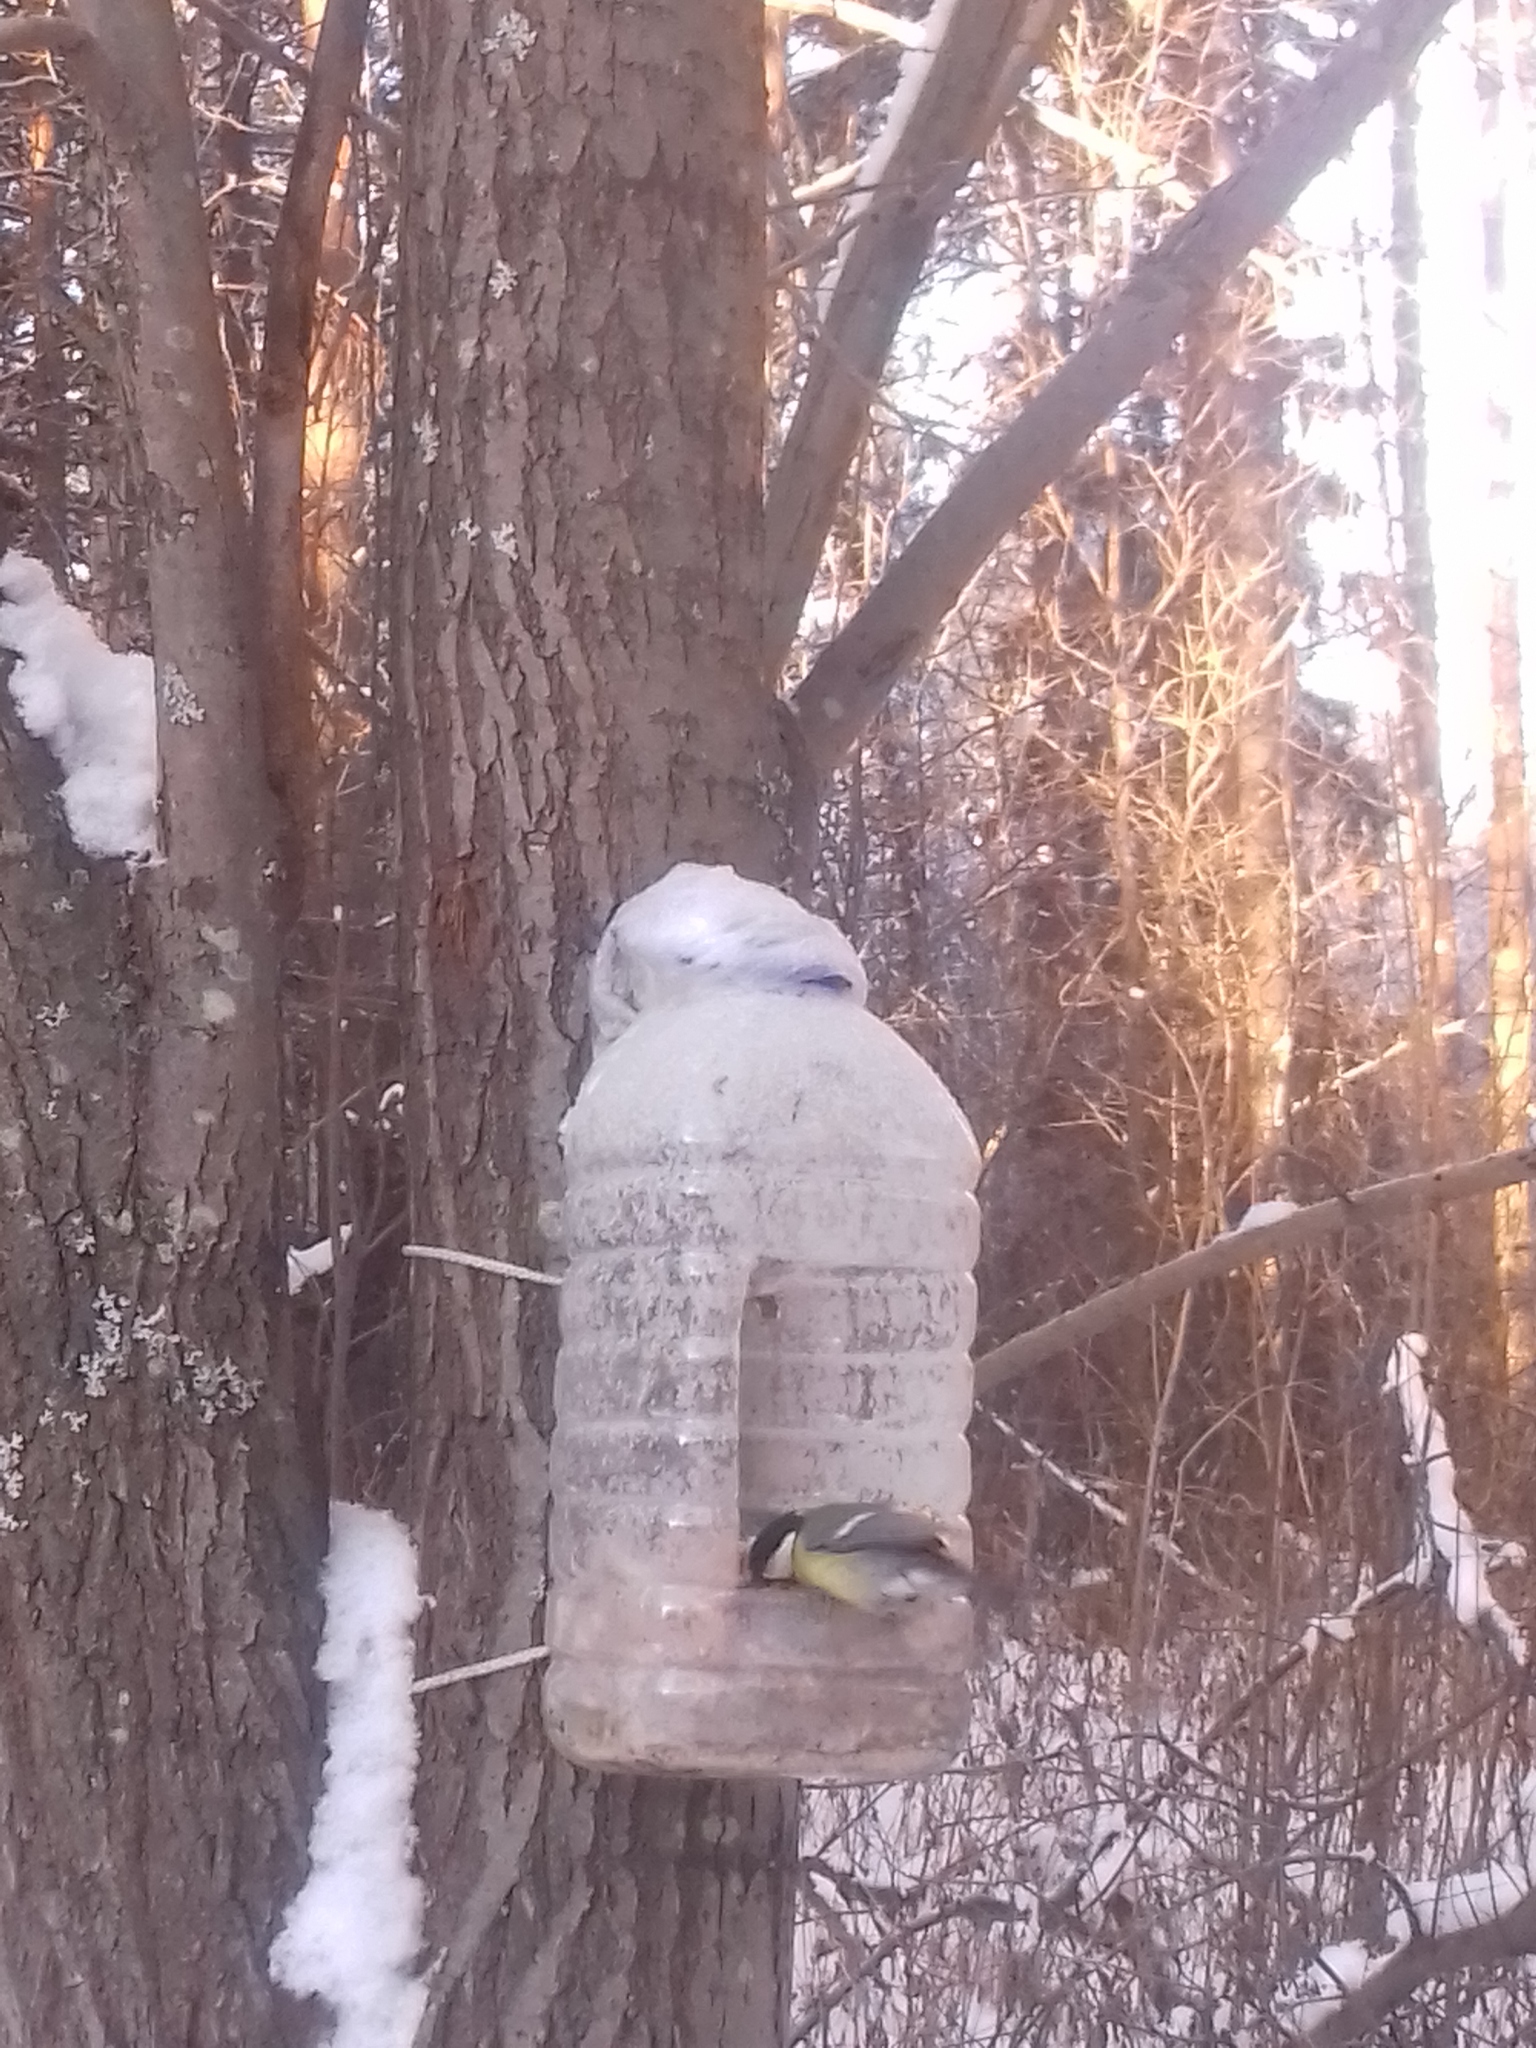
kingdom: Animalia
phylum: Chordata
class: Aves
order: Passeriformes
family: Paridae
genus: Parus
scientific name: Parus major
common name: Great tit
